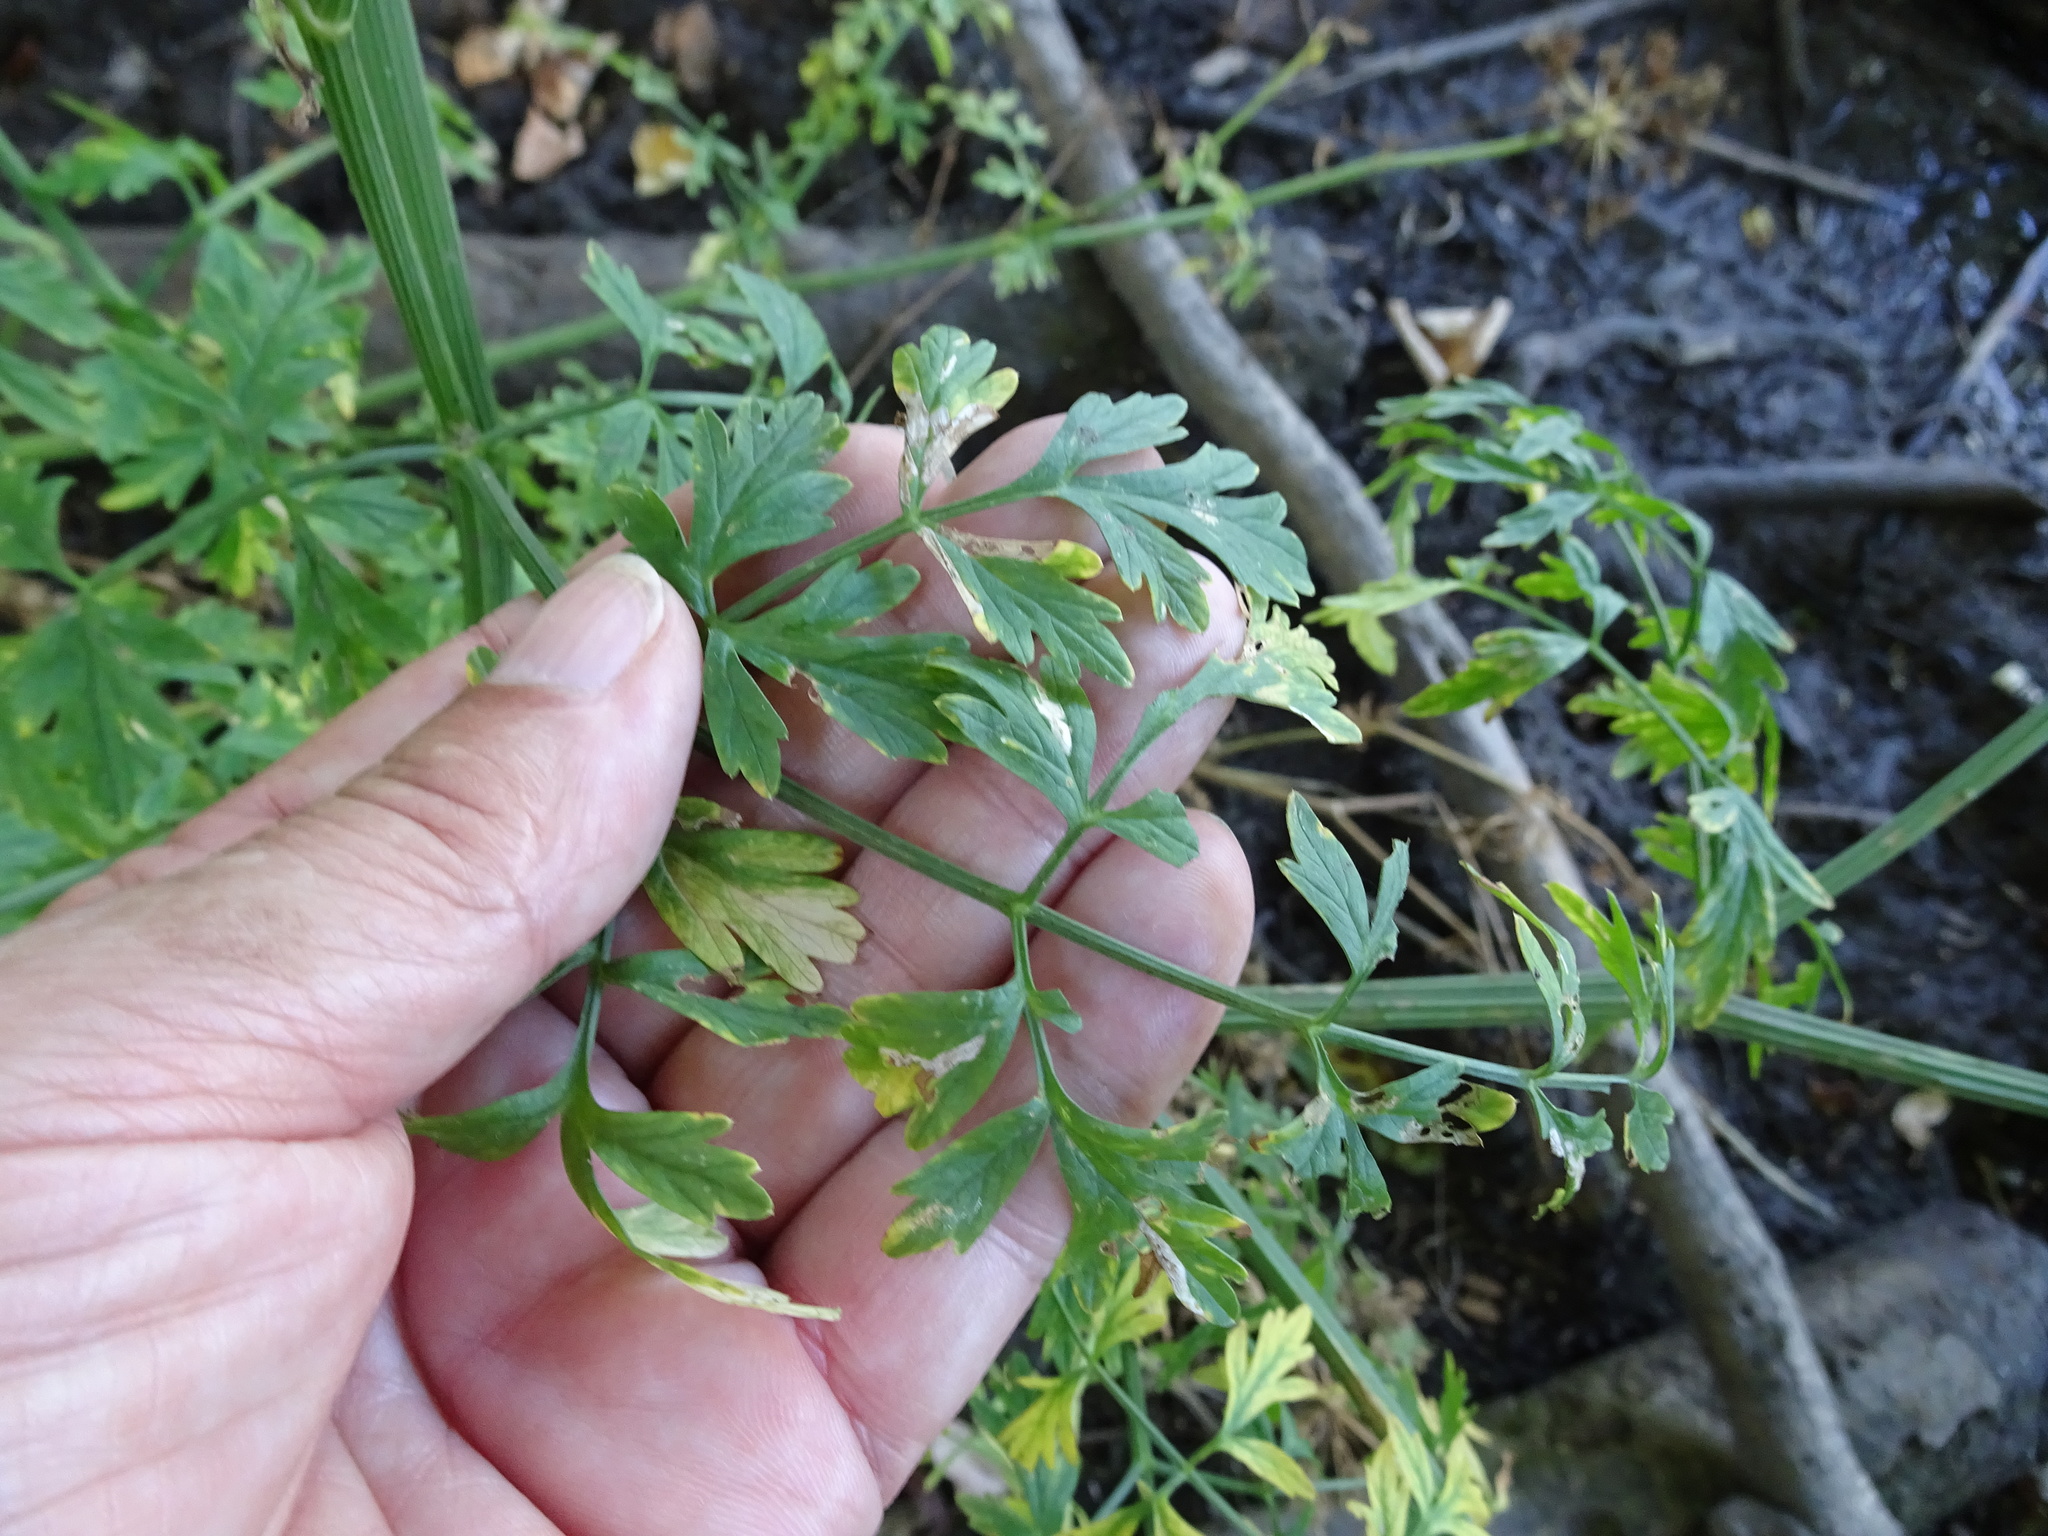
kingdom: Plantae
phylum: Tracheophyta
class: Magnoliopsida
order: Apiales
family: Apiaceae
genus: Oenanthe
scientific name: Oenanthe crocata
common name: Hemlock water-dropwort
